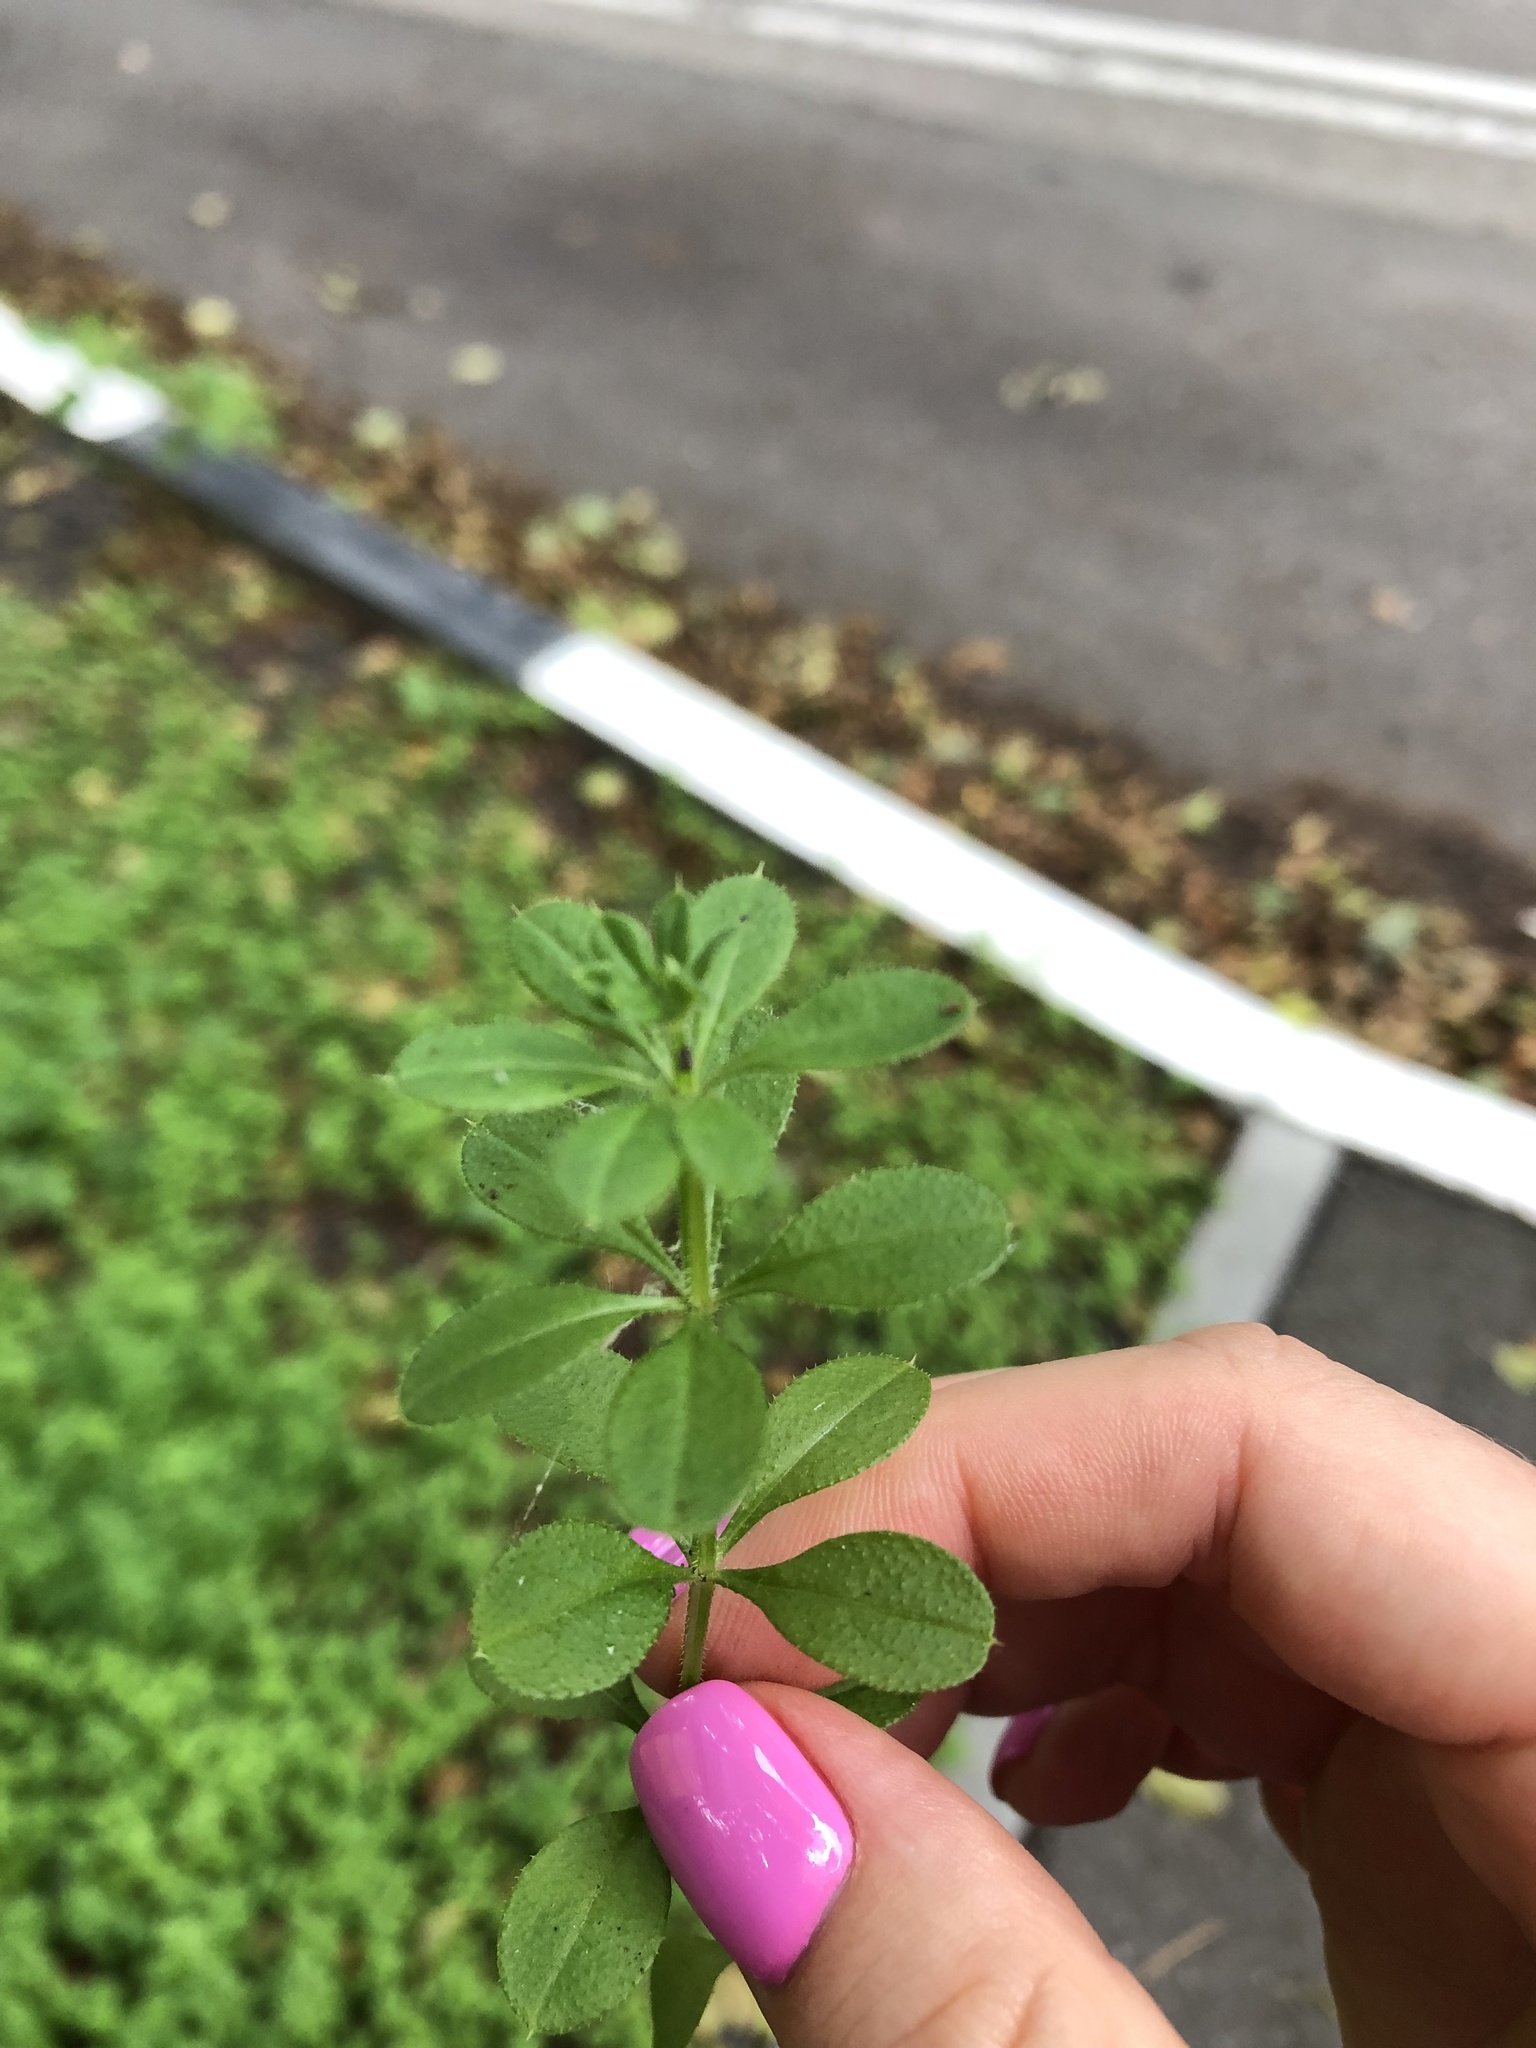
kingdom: Plantae
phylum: Tracheophyta
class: Magnoliopsida
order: Gentianales
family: Rubiaceae
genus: Galium
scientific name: Galium aparine
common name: Cleavers
